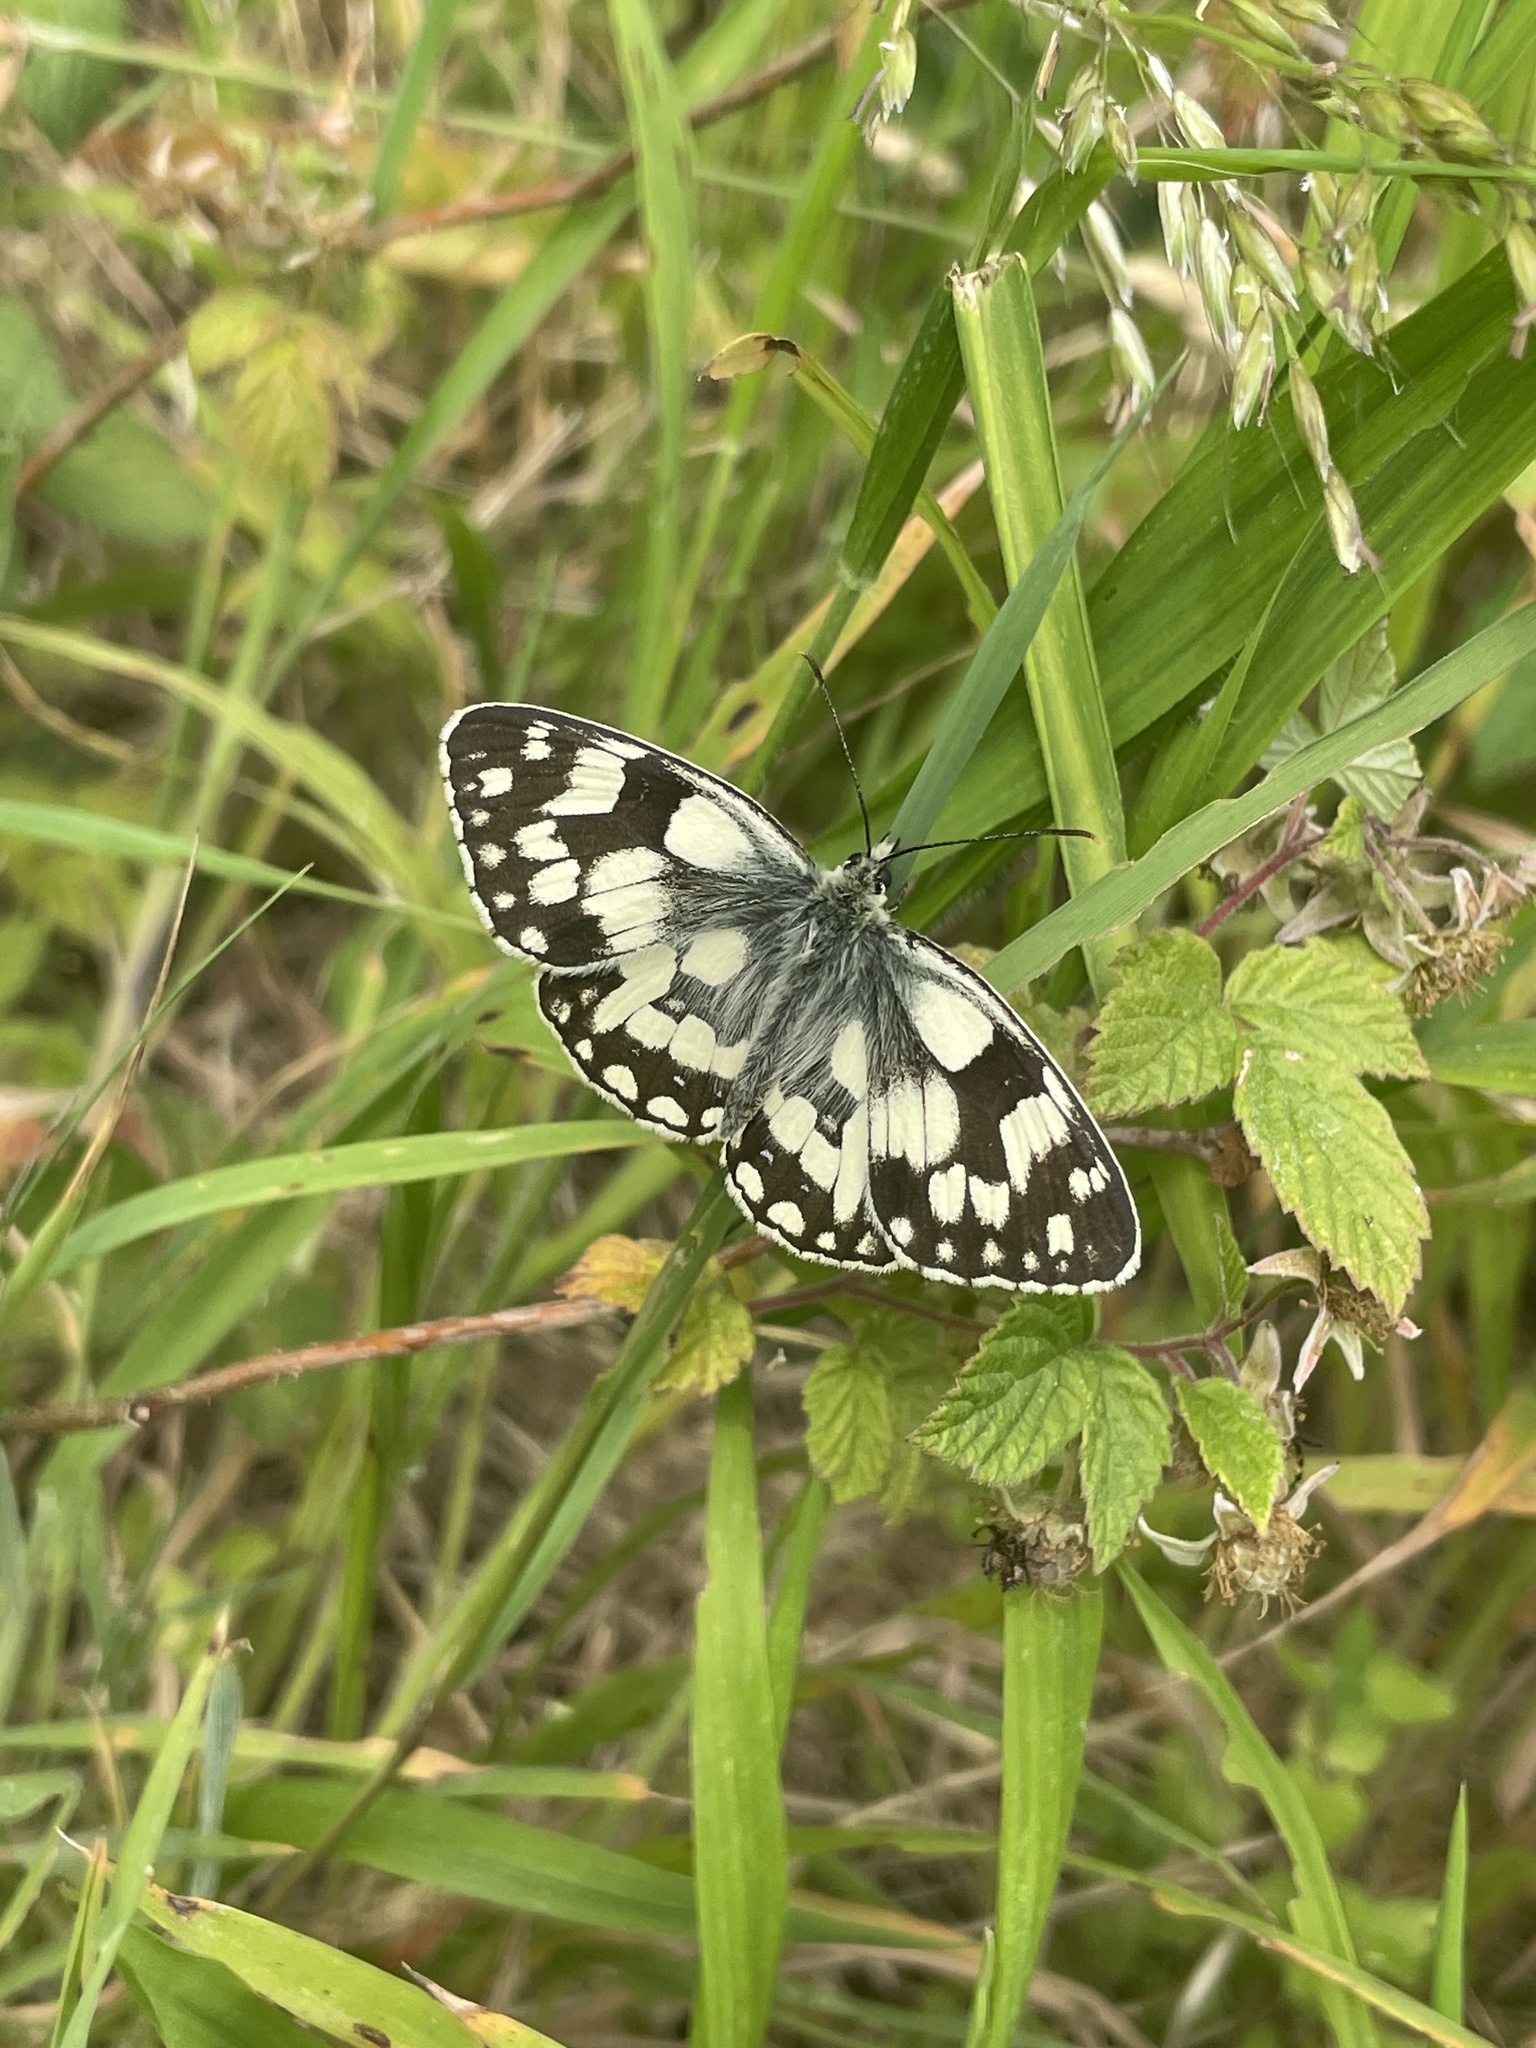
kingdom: Animalia
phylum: Arthropoda
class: Insecta
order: Lepidoptera
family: Nymphalidae
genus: Melanargia
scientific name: Melanargia galathea
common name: Marbled white
